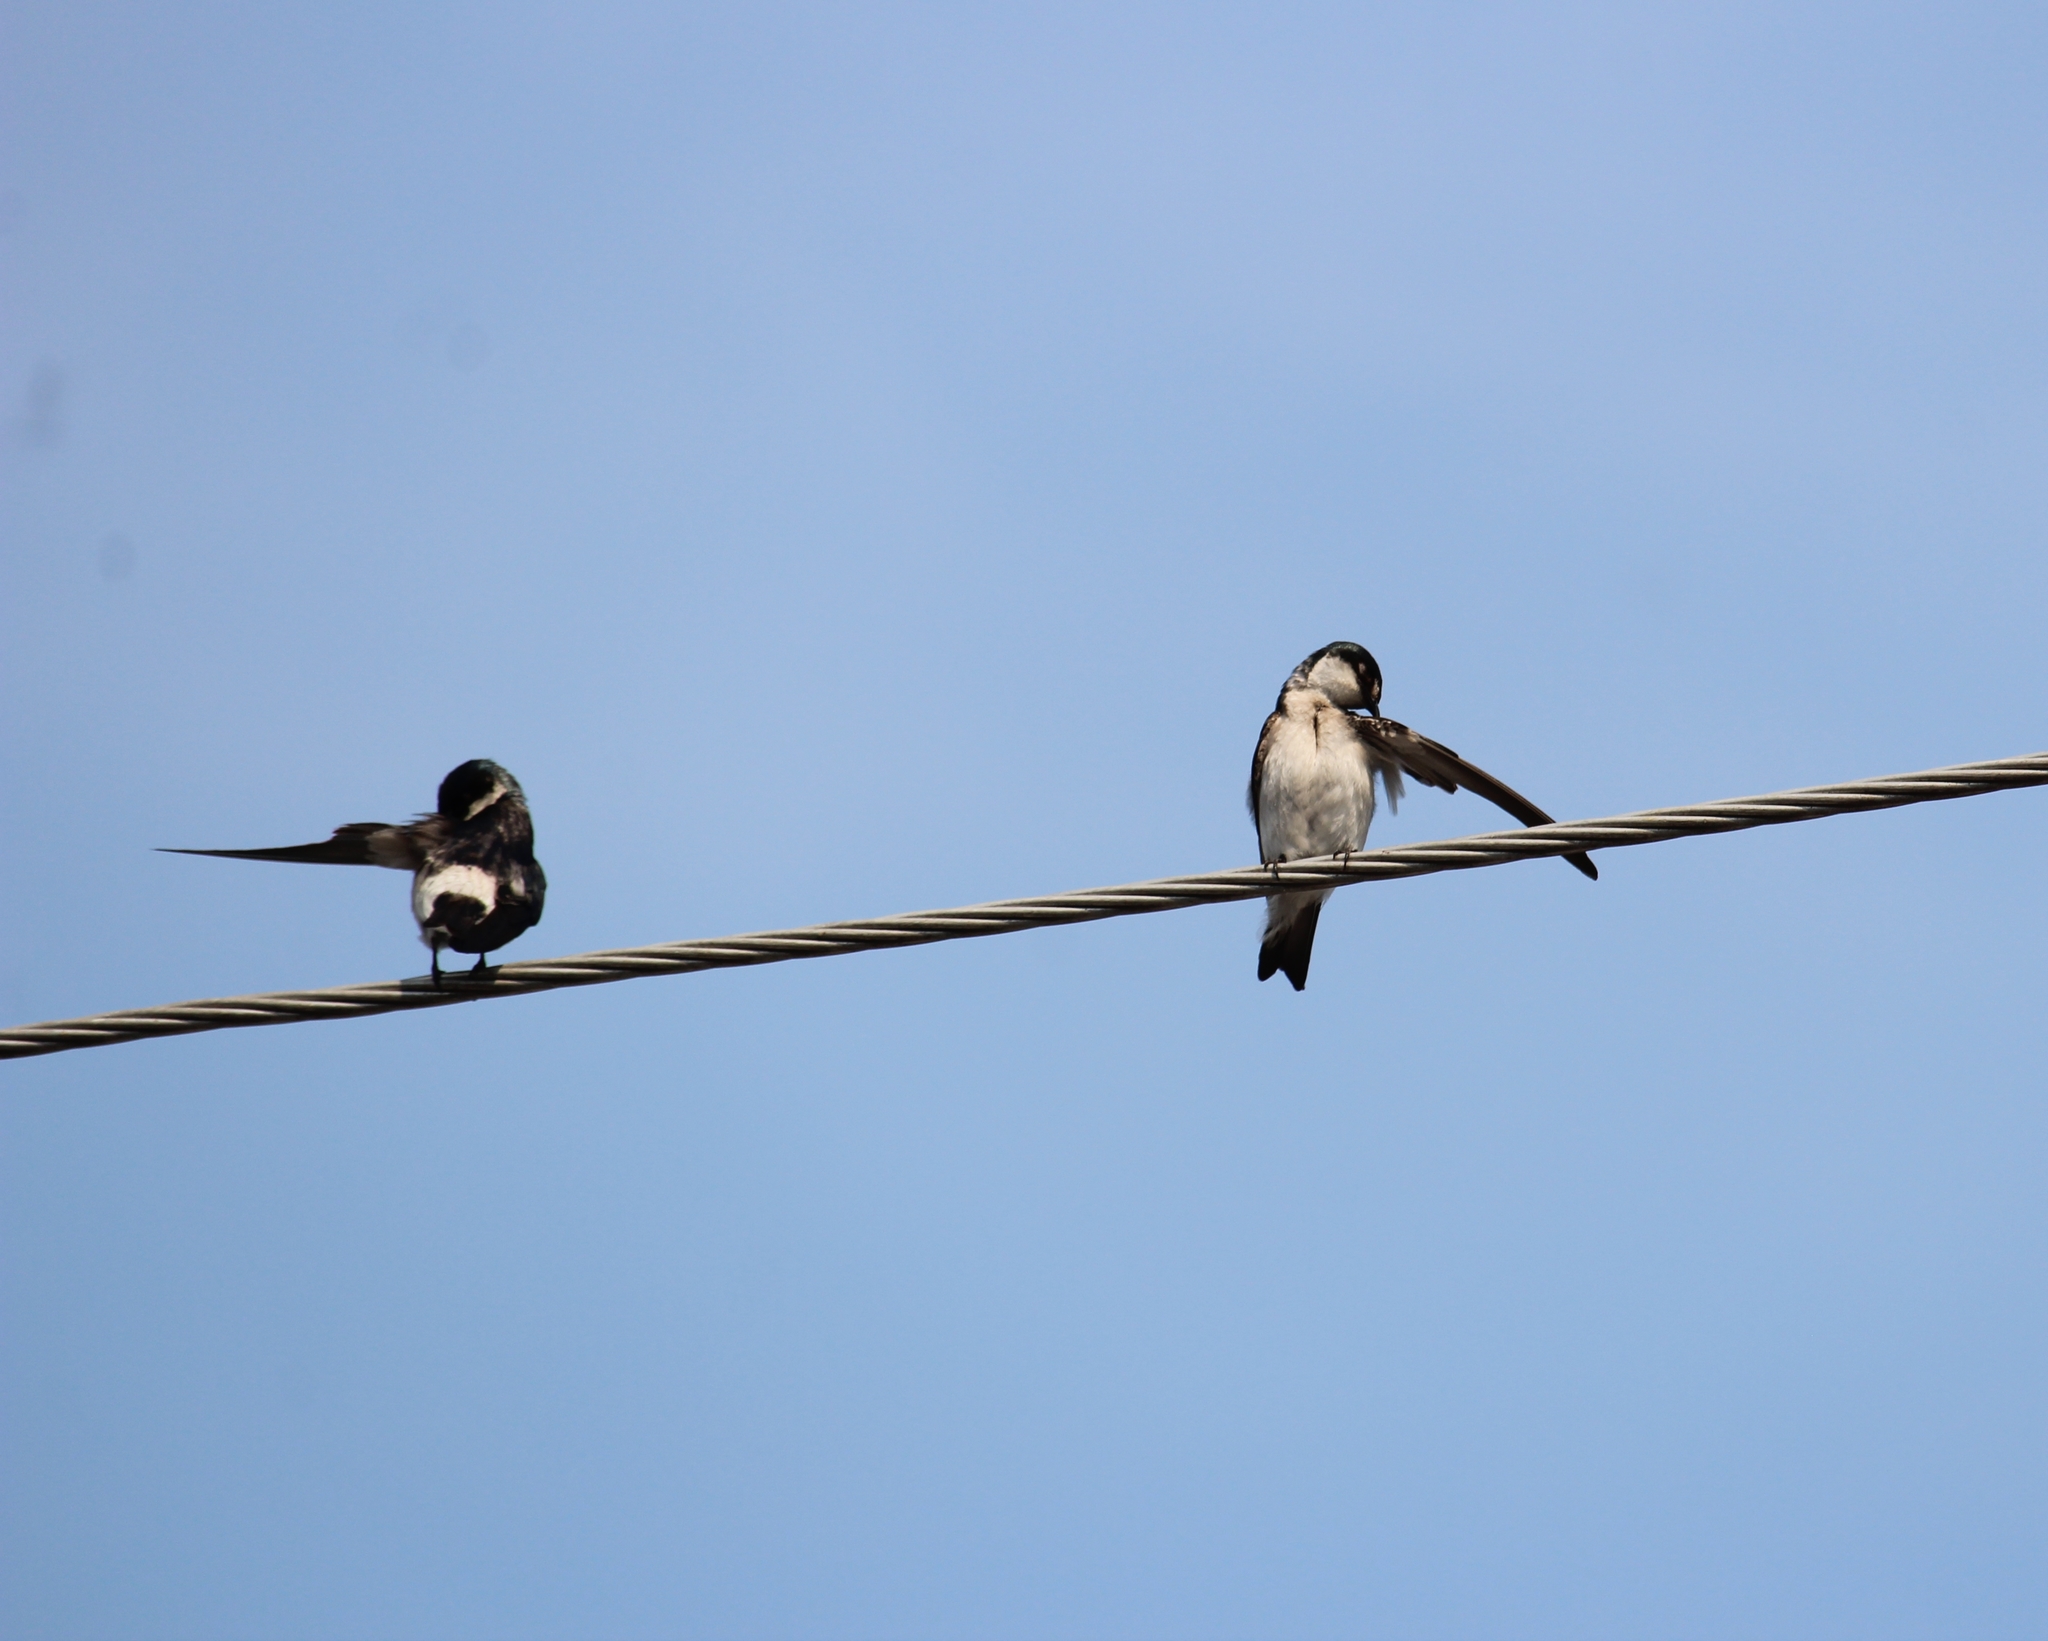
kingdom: Animalia
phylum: Chordata
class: Aves
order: Passeriformes
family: Hirundinidae
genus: Tachycineta
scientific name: Tachycineta albilinea
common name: Mangrove swallow
